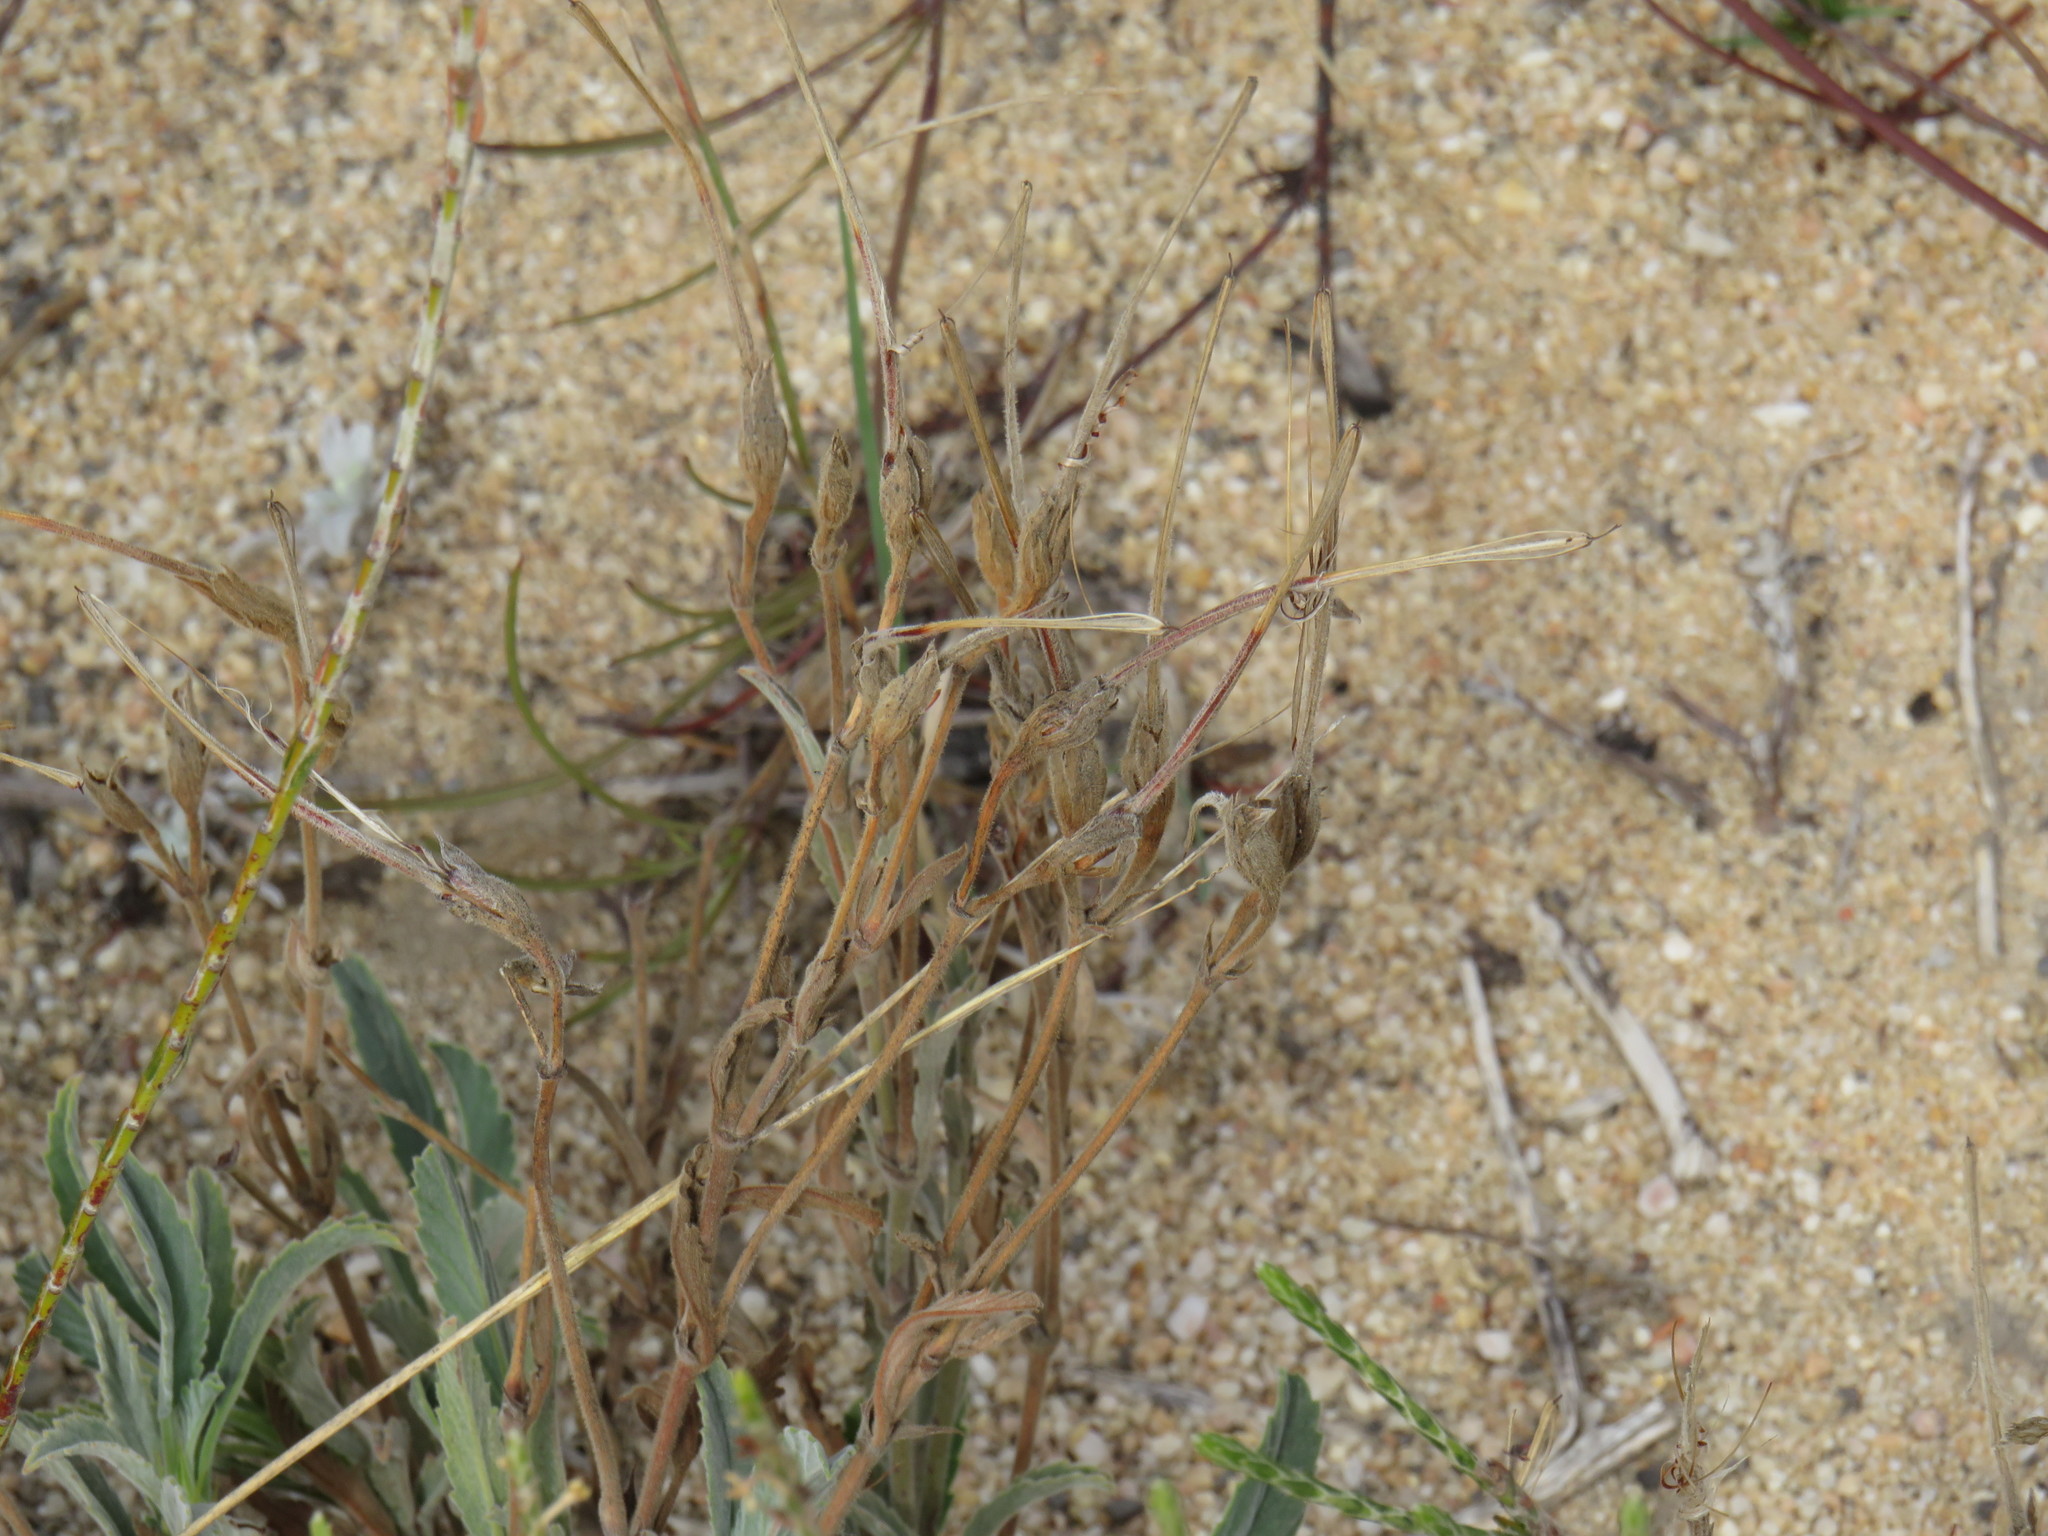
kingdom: Plantae
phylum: Tracheophyta
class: Magnoliopsida
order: Geraniales
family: Geraniaceae
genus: Pelargonium
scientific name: Pelargonium oenothera
